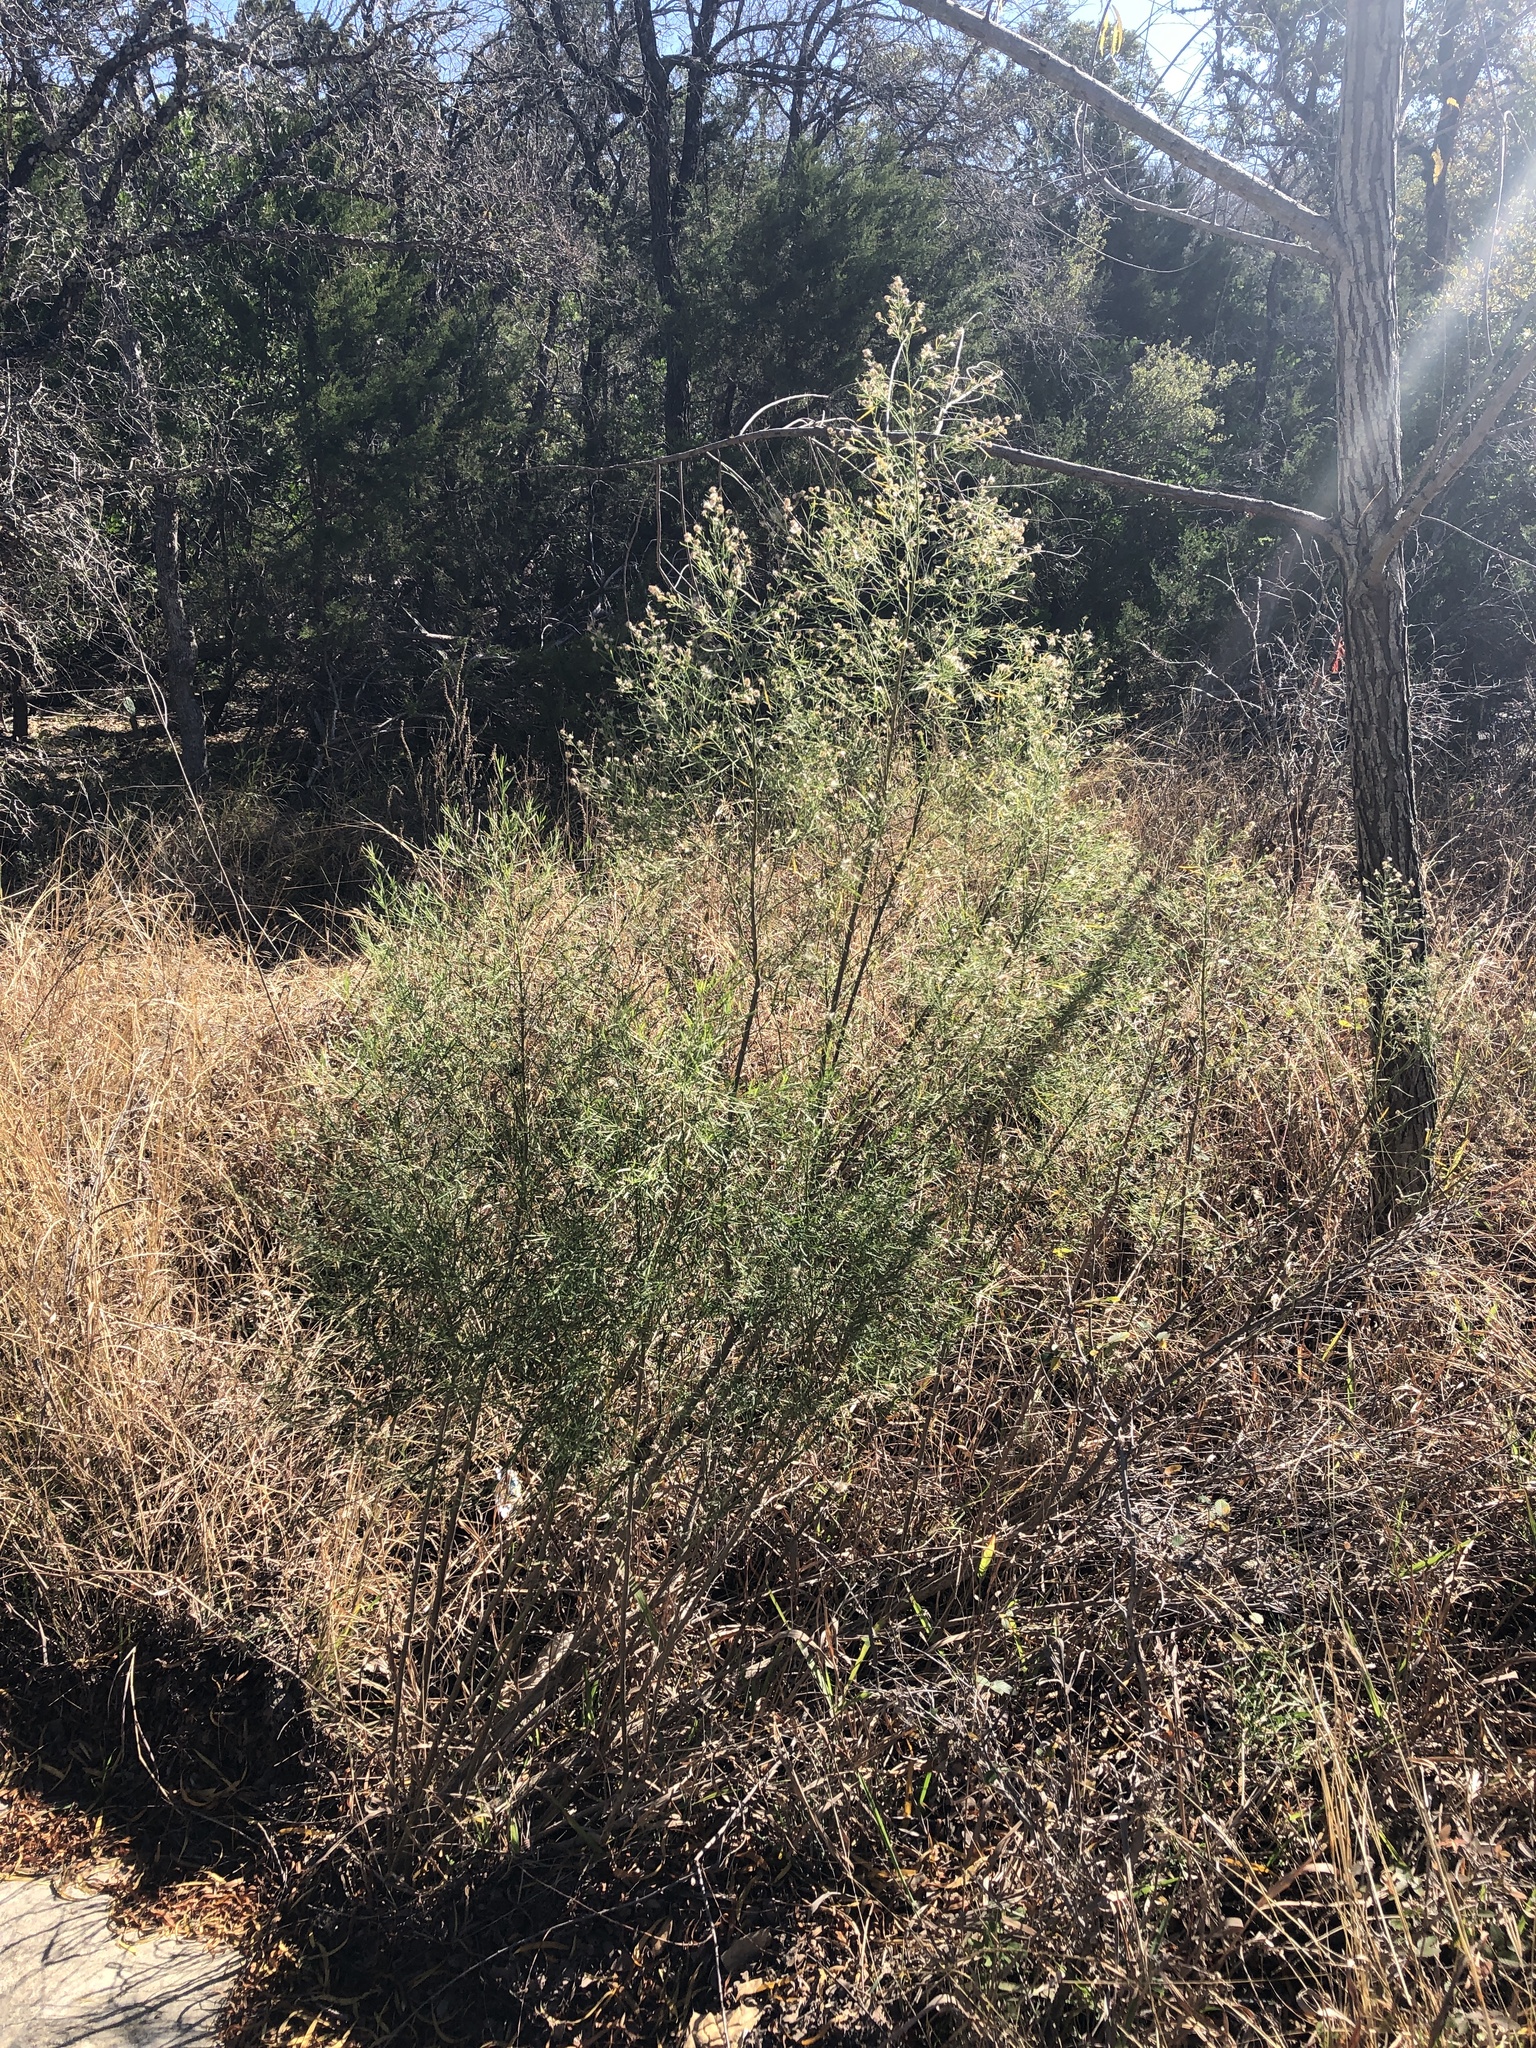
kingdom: Plantae
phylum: Tracheophyta
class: Magnoliopsida
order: Asterales
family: Asteraceae
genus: Baccharis
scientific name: Baccharis neglecta
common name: Roosevelt-weed
